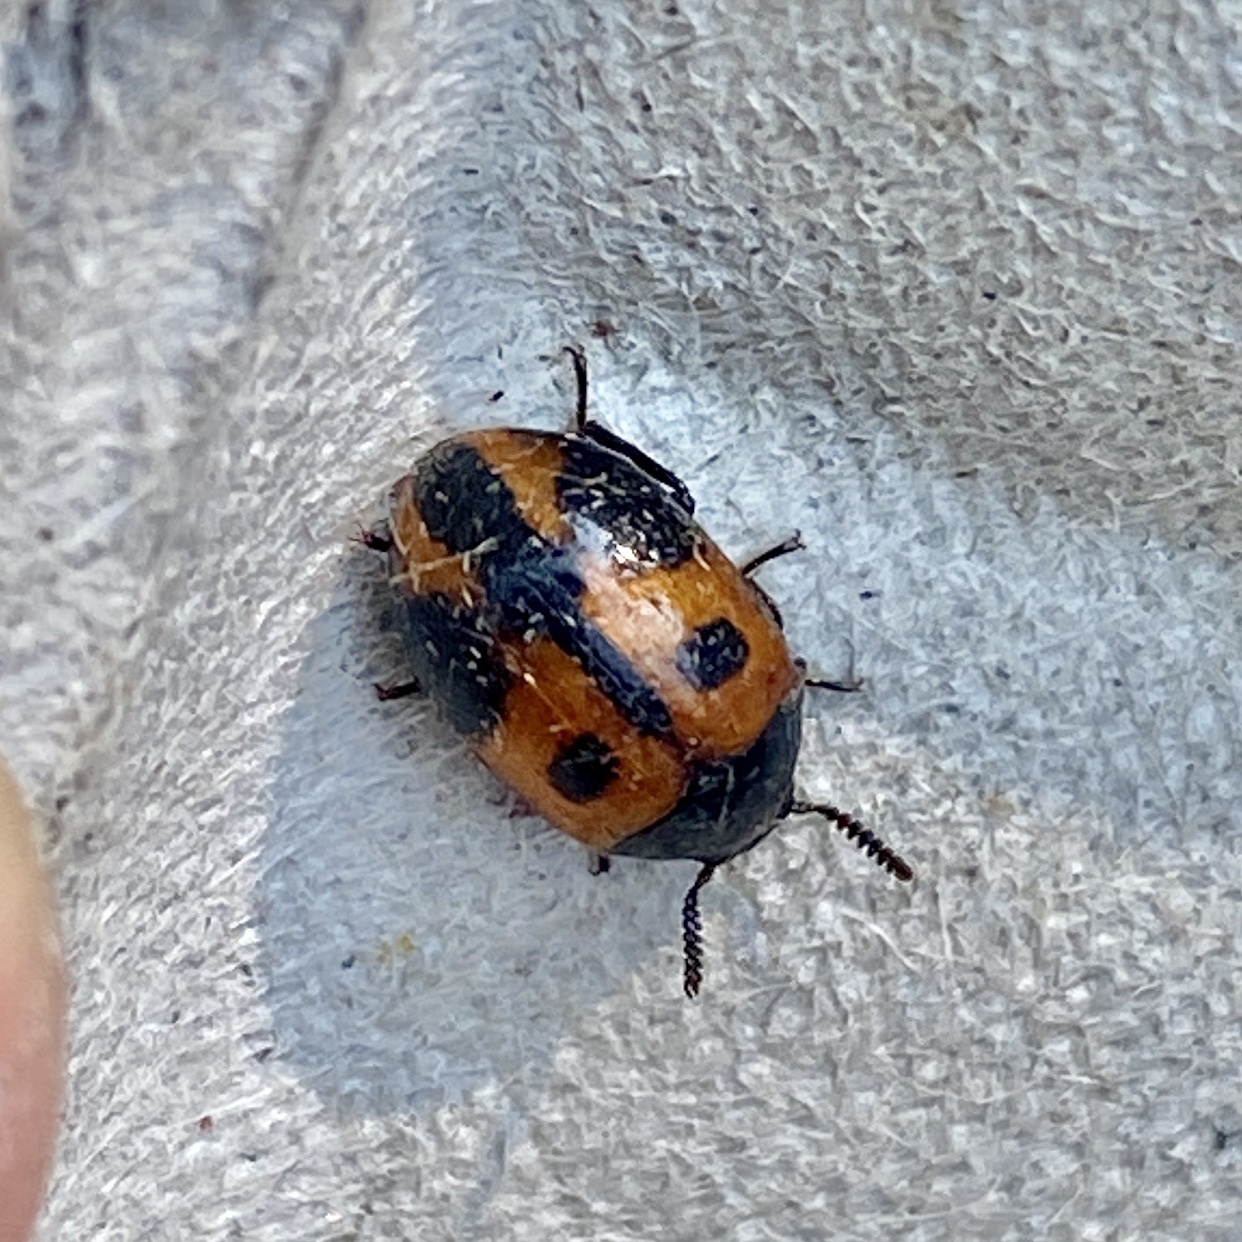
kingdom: Animalia
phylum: Arthropoda
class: Insecta
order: Coleoptera
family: Tenebrionidae
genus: Diaperis
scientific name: Diaperis maculata
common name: Darkling beetle
